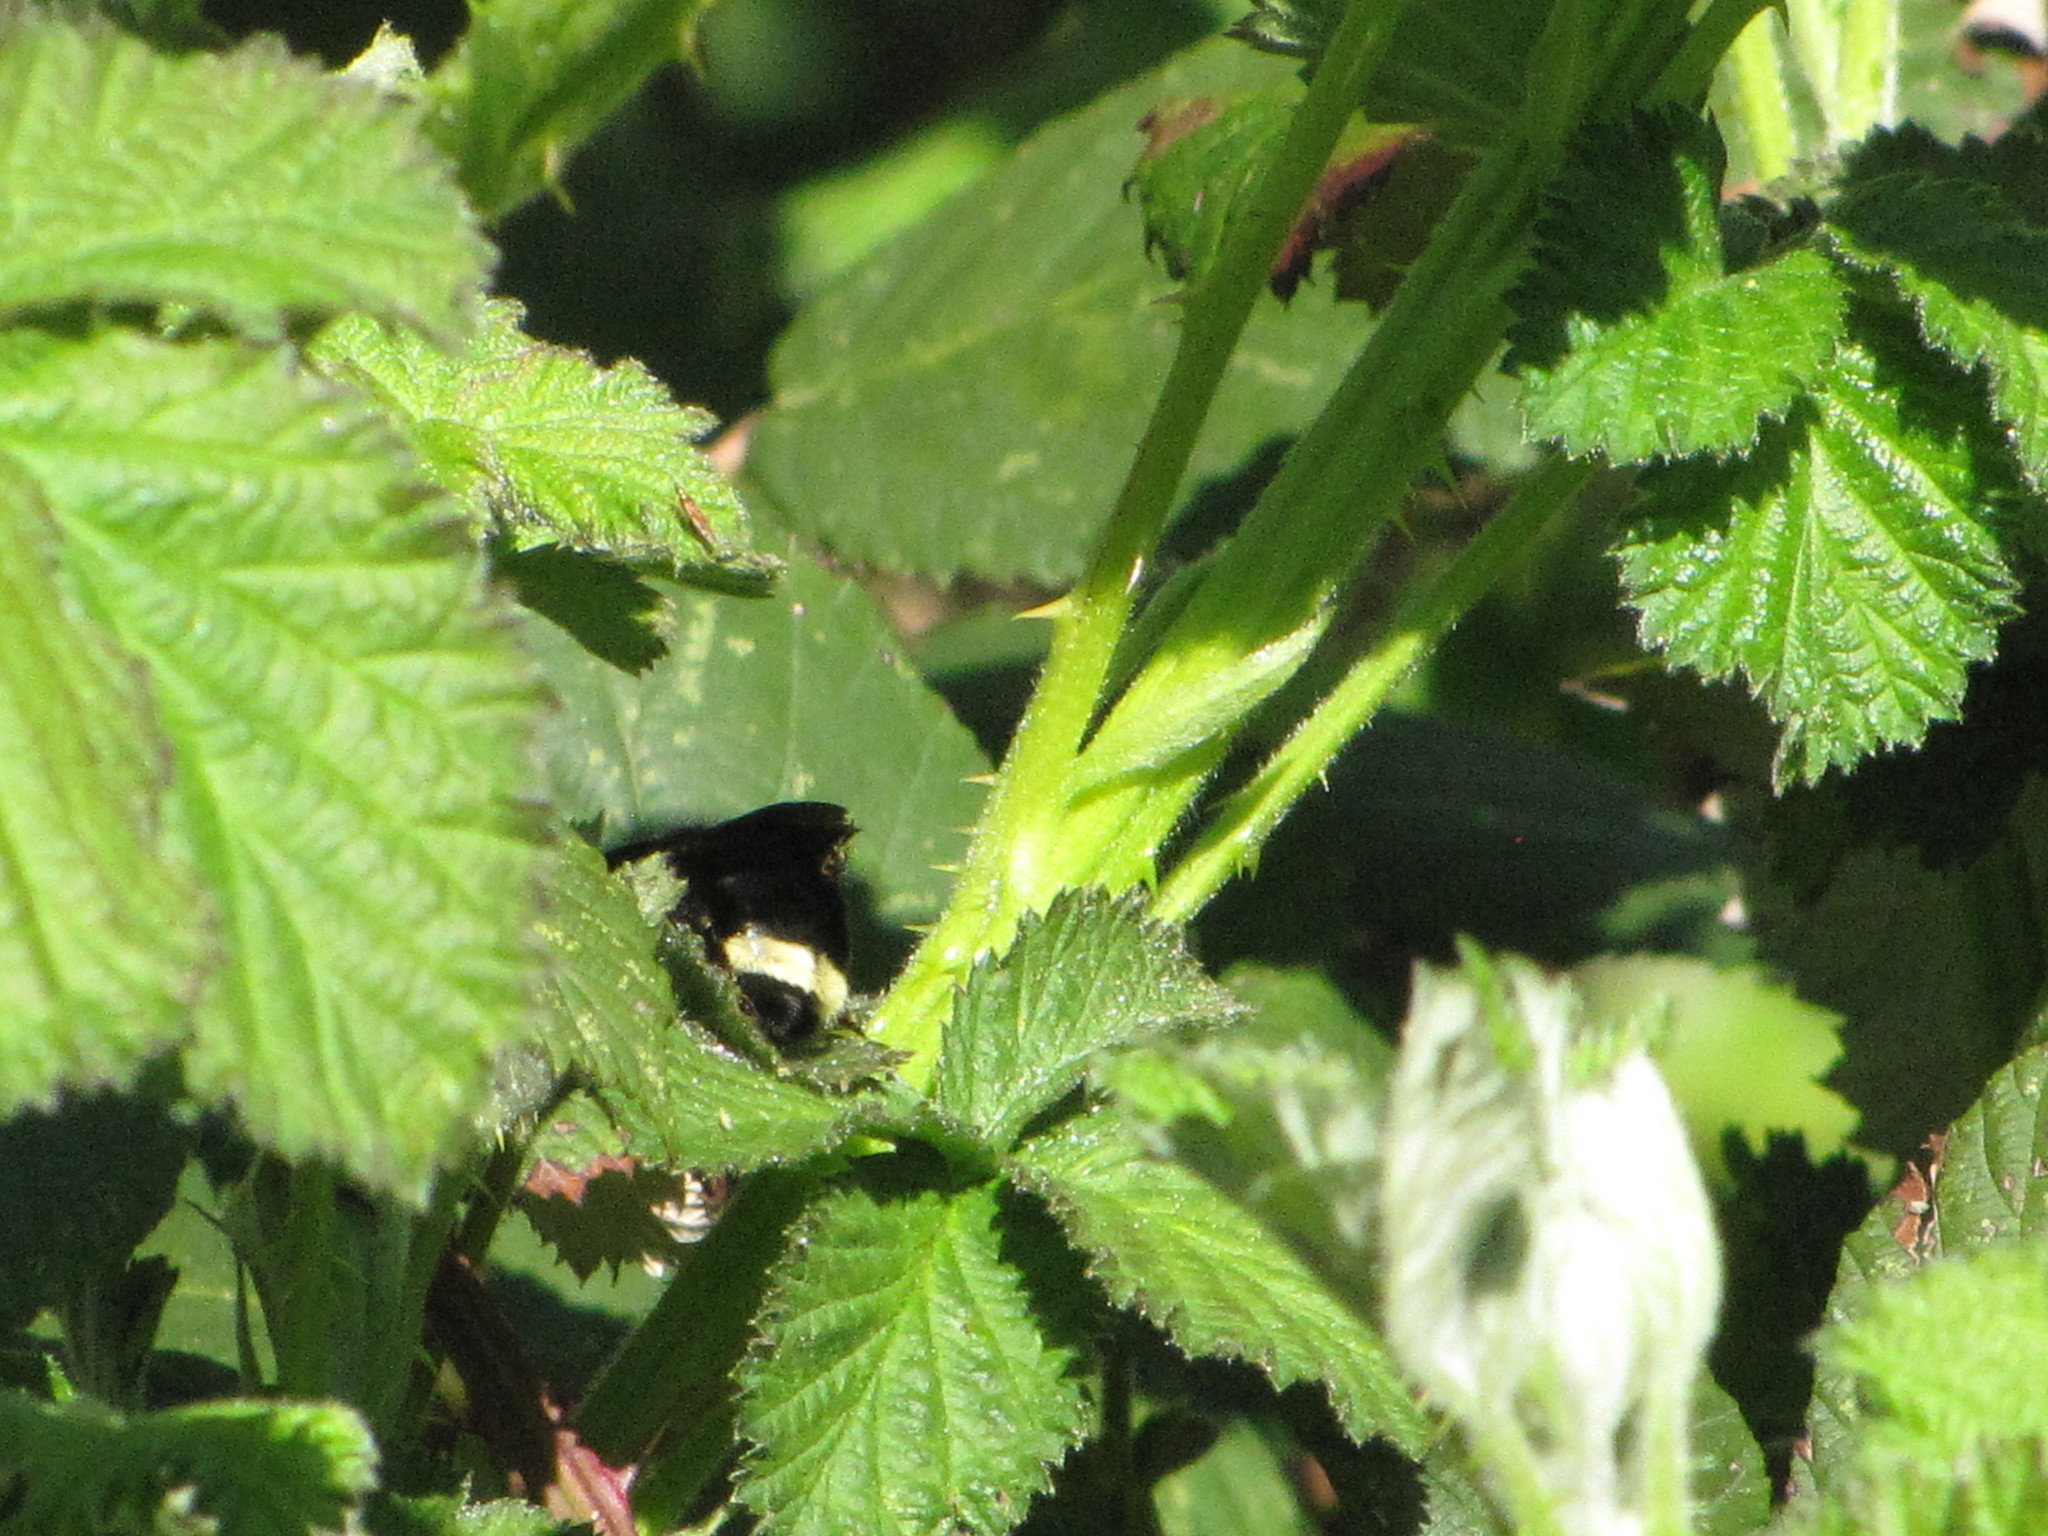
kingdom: Animalia
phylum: Arthropoda
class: Insecta
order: Hymenoptera
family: Apidae
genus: Bombus
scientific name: Bombus vosnesenskii
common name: Vosnesensky bumble bee
